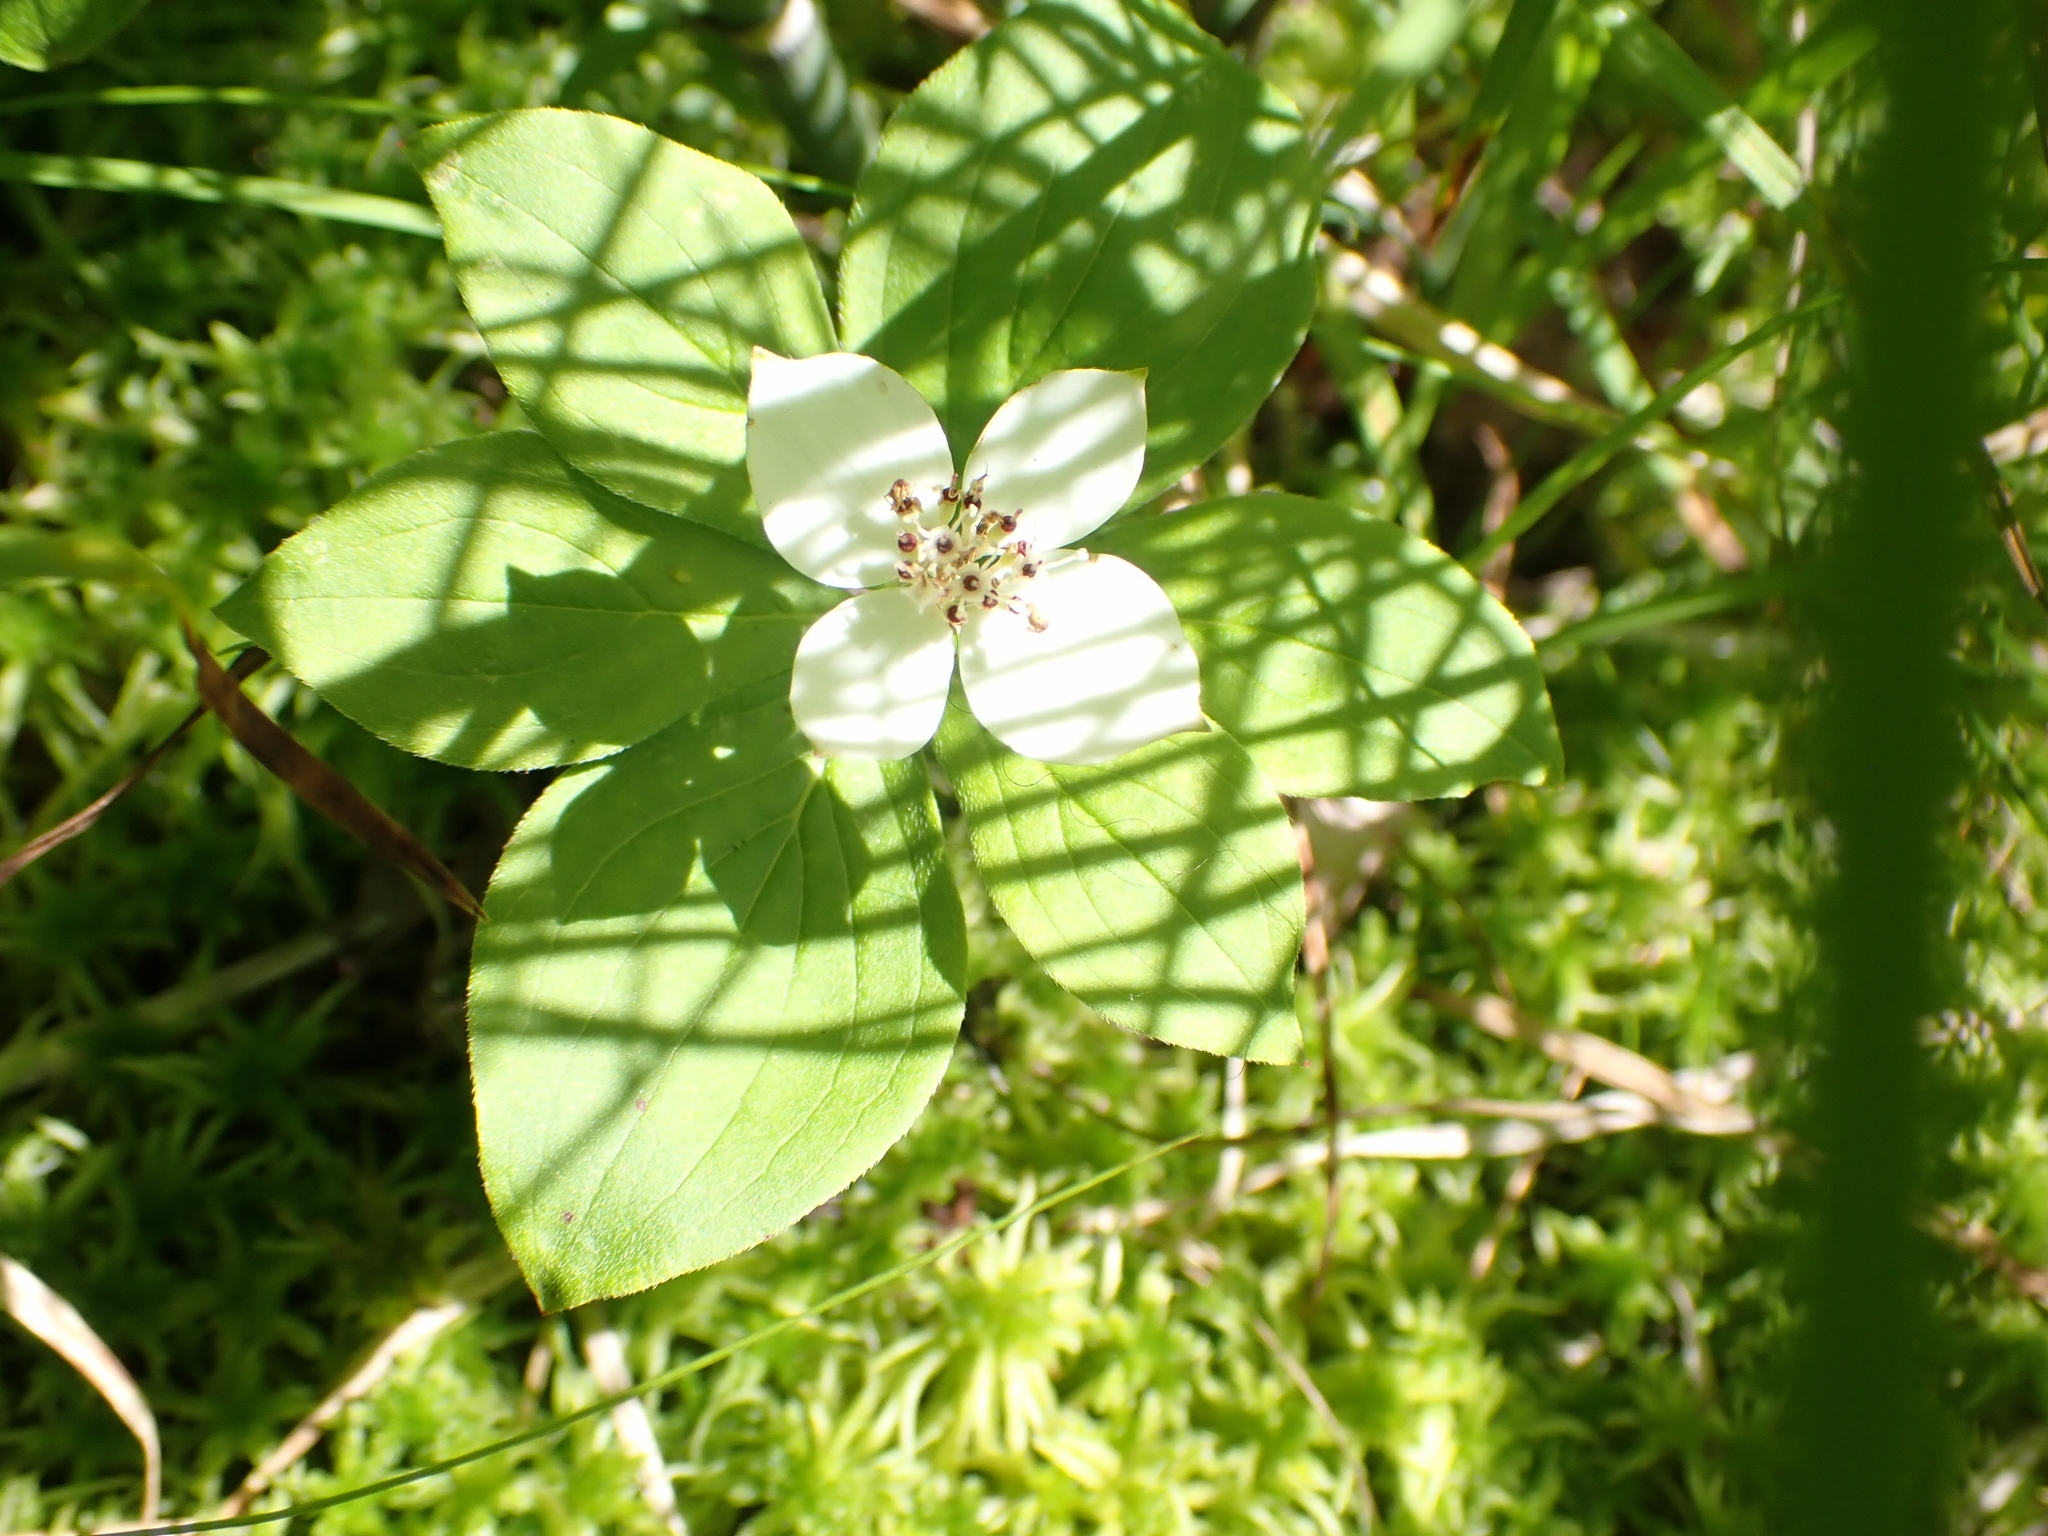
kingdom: Plantae
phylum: Tracheophyta
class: Magnoliopsida
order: Cornales
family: Cornaceae
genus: Cornus
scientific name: Cornus canadensis
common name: Creeping dogwood
